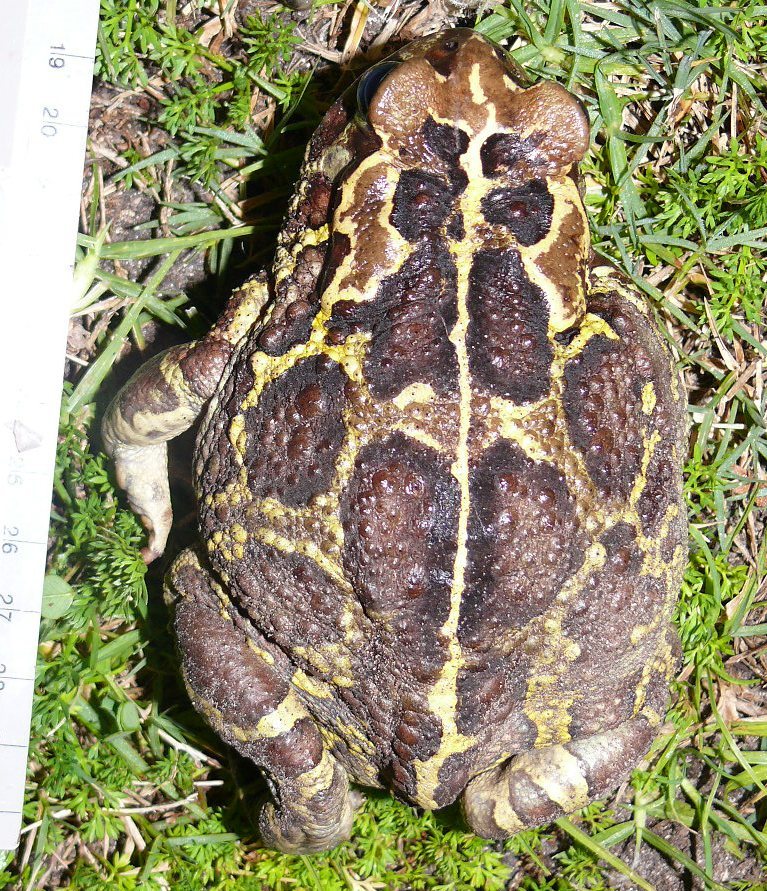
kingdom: Animalia
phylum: Chordata
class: Amphibia
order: Anura
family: Bufonidae
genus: Sclerophrys
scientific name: Sclerophrys pantherina
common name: Panther toad
